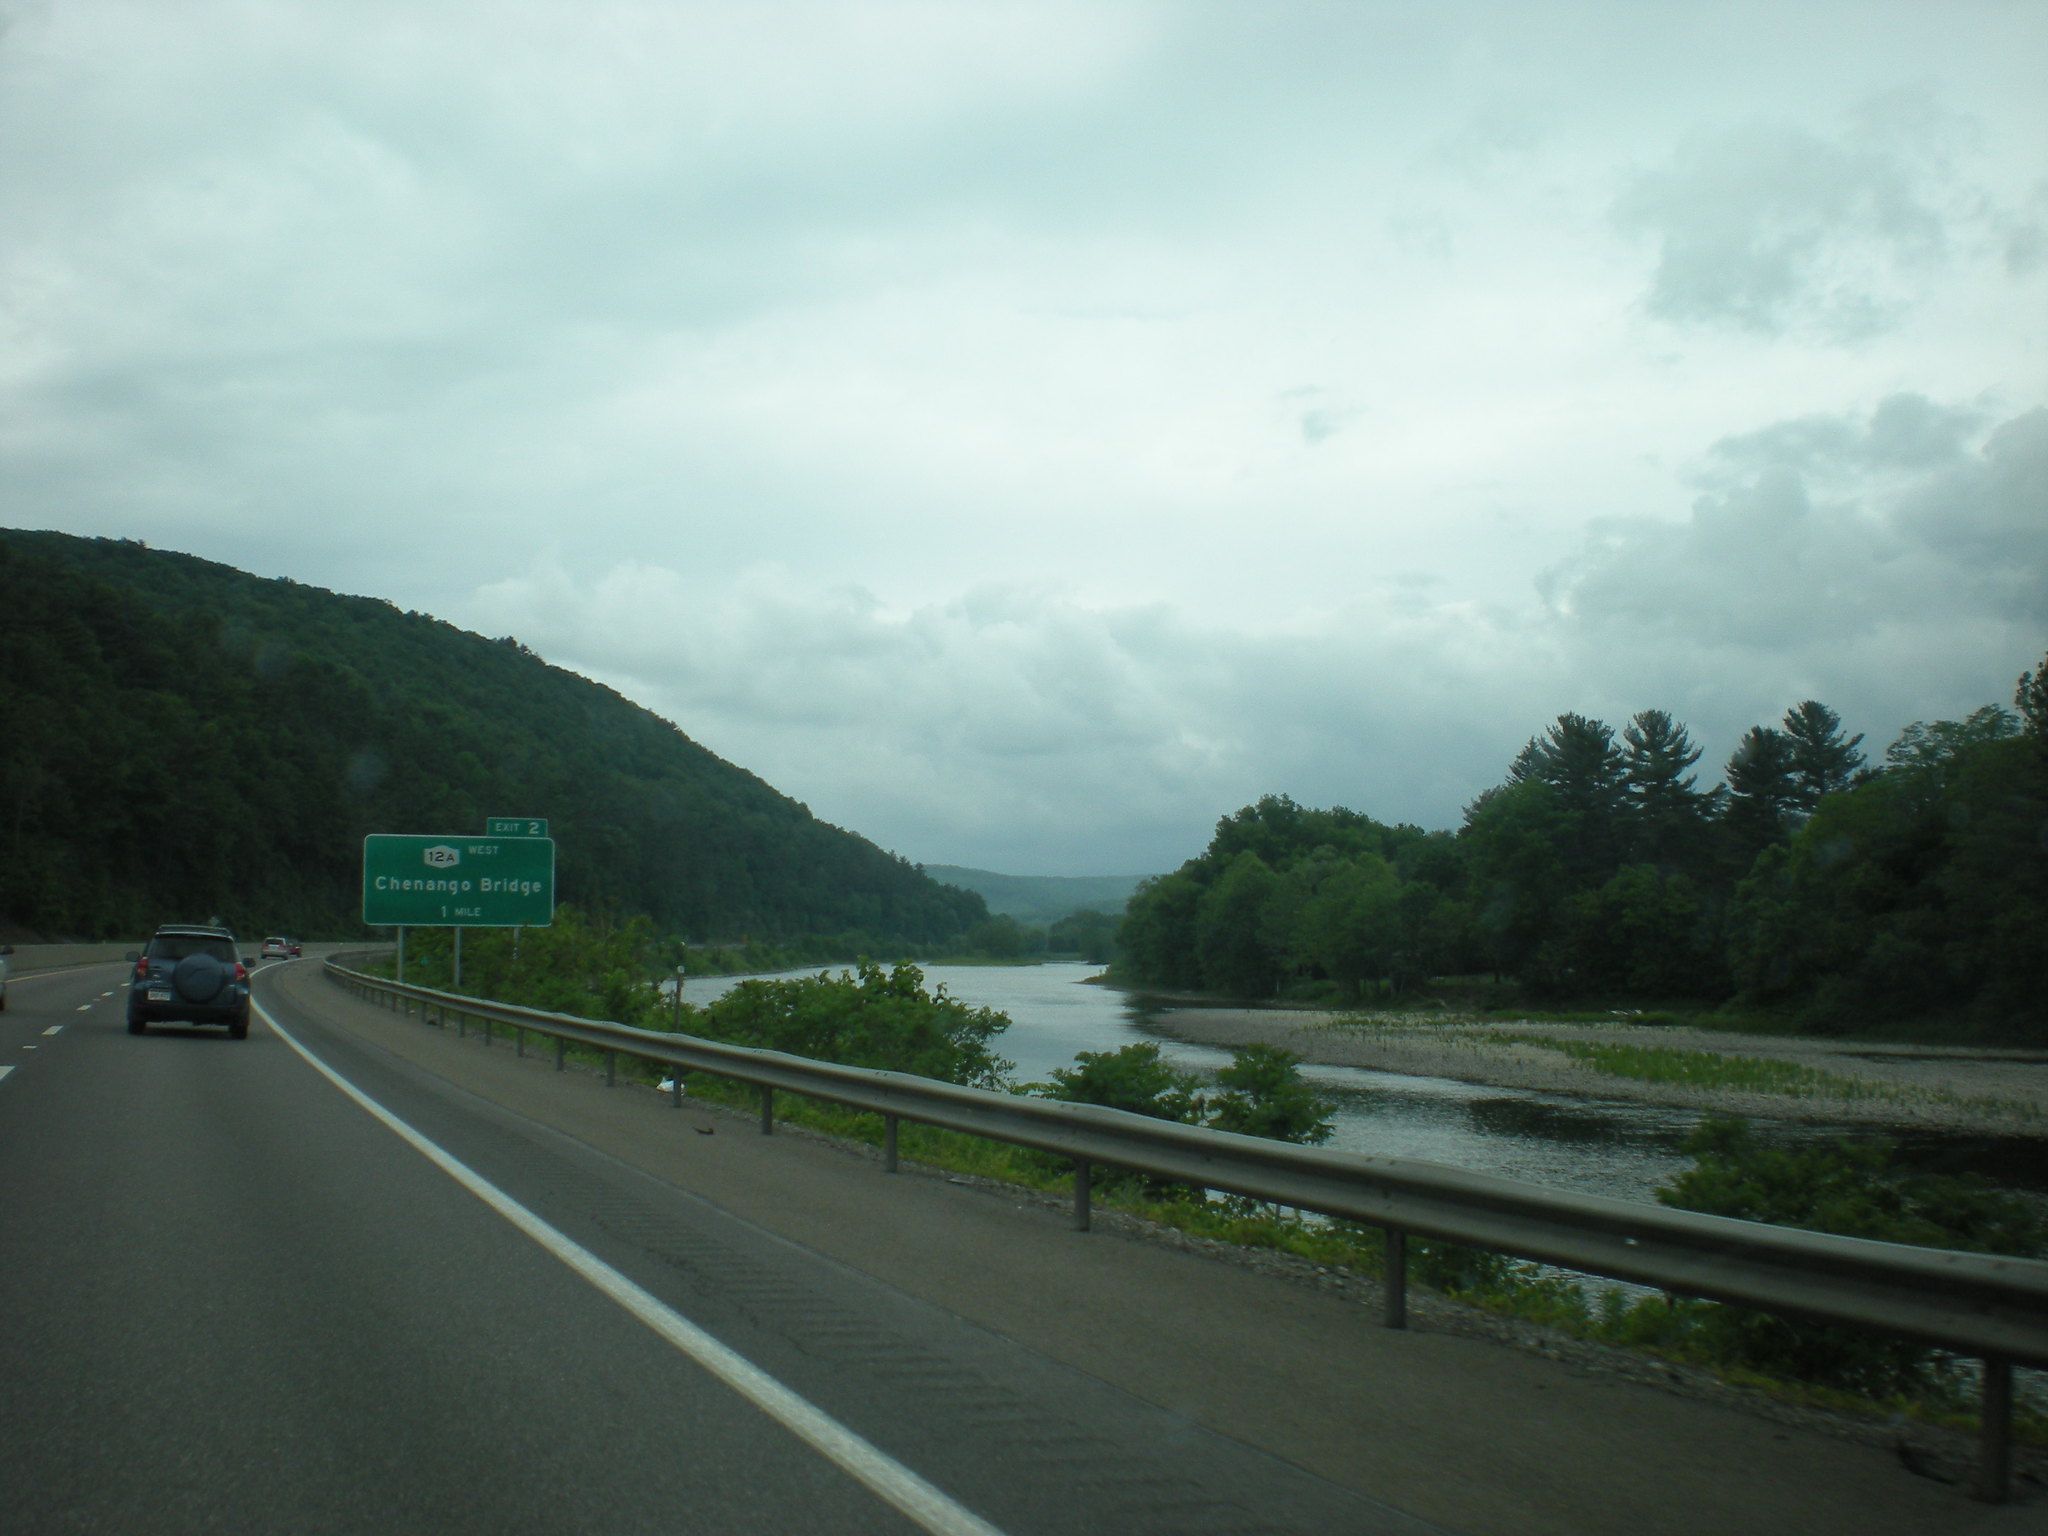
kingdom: Plantae
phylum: Tracheophyta
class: Pinopsida
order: Pinales
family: Pinaceae
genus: Pinus
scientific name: Pinus strobus
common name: Weymouth pine
